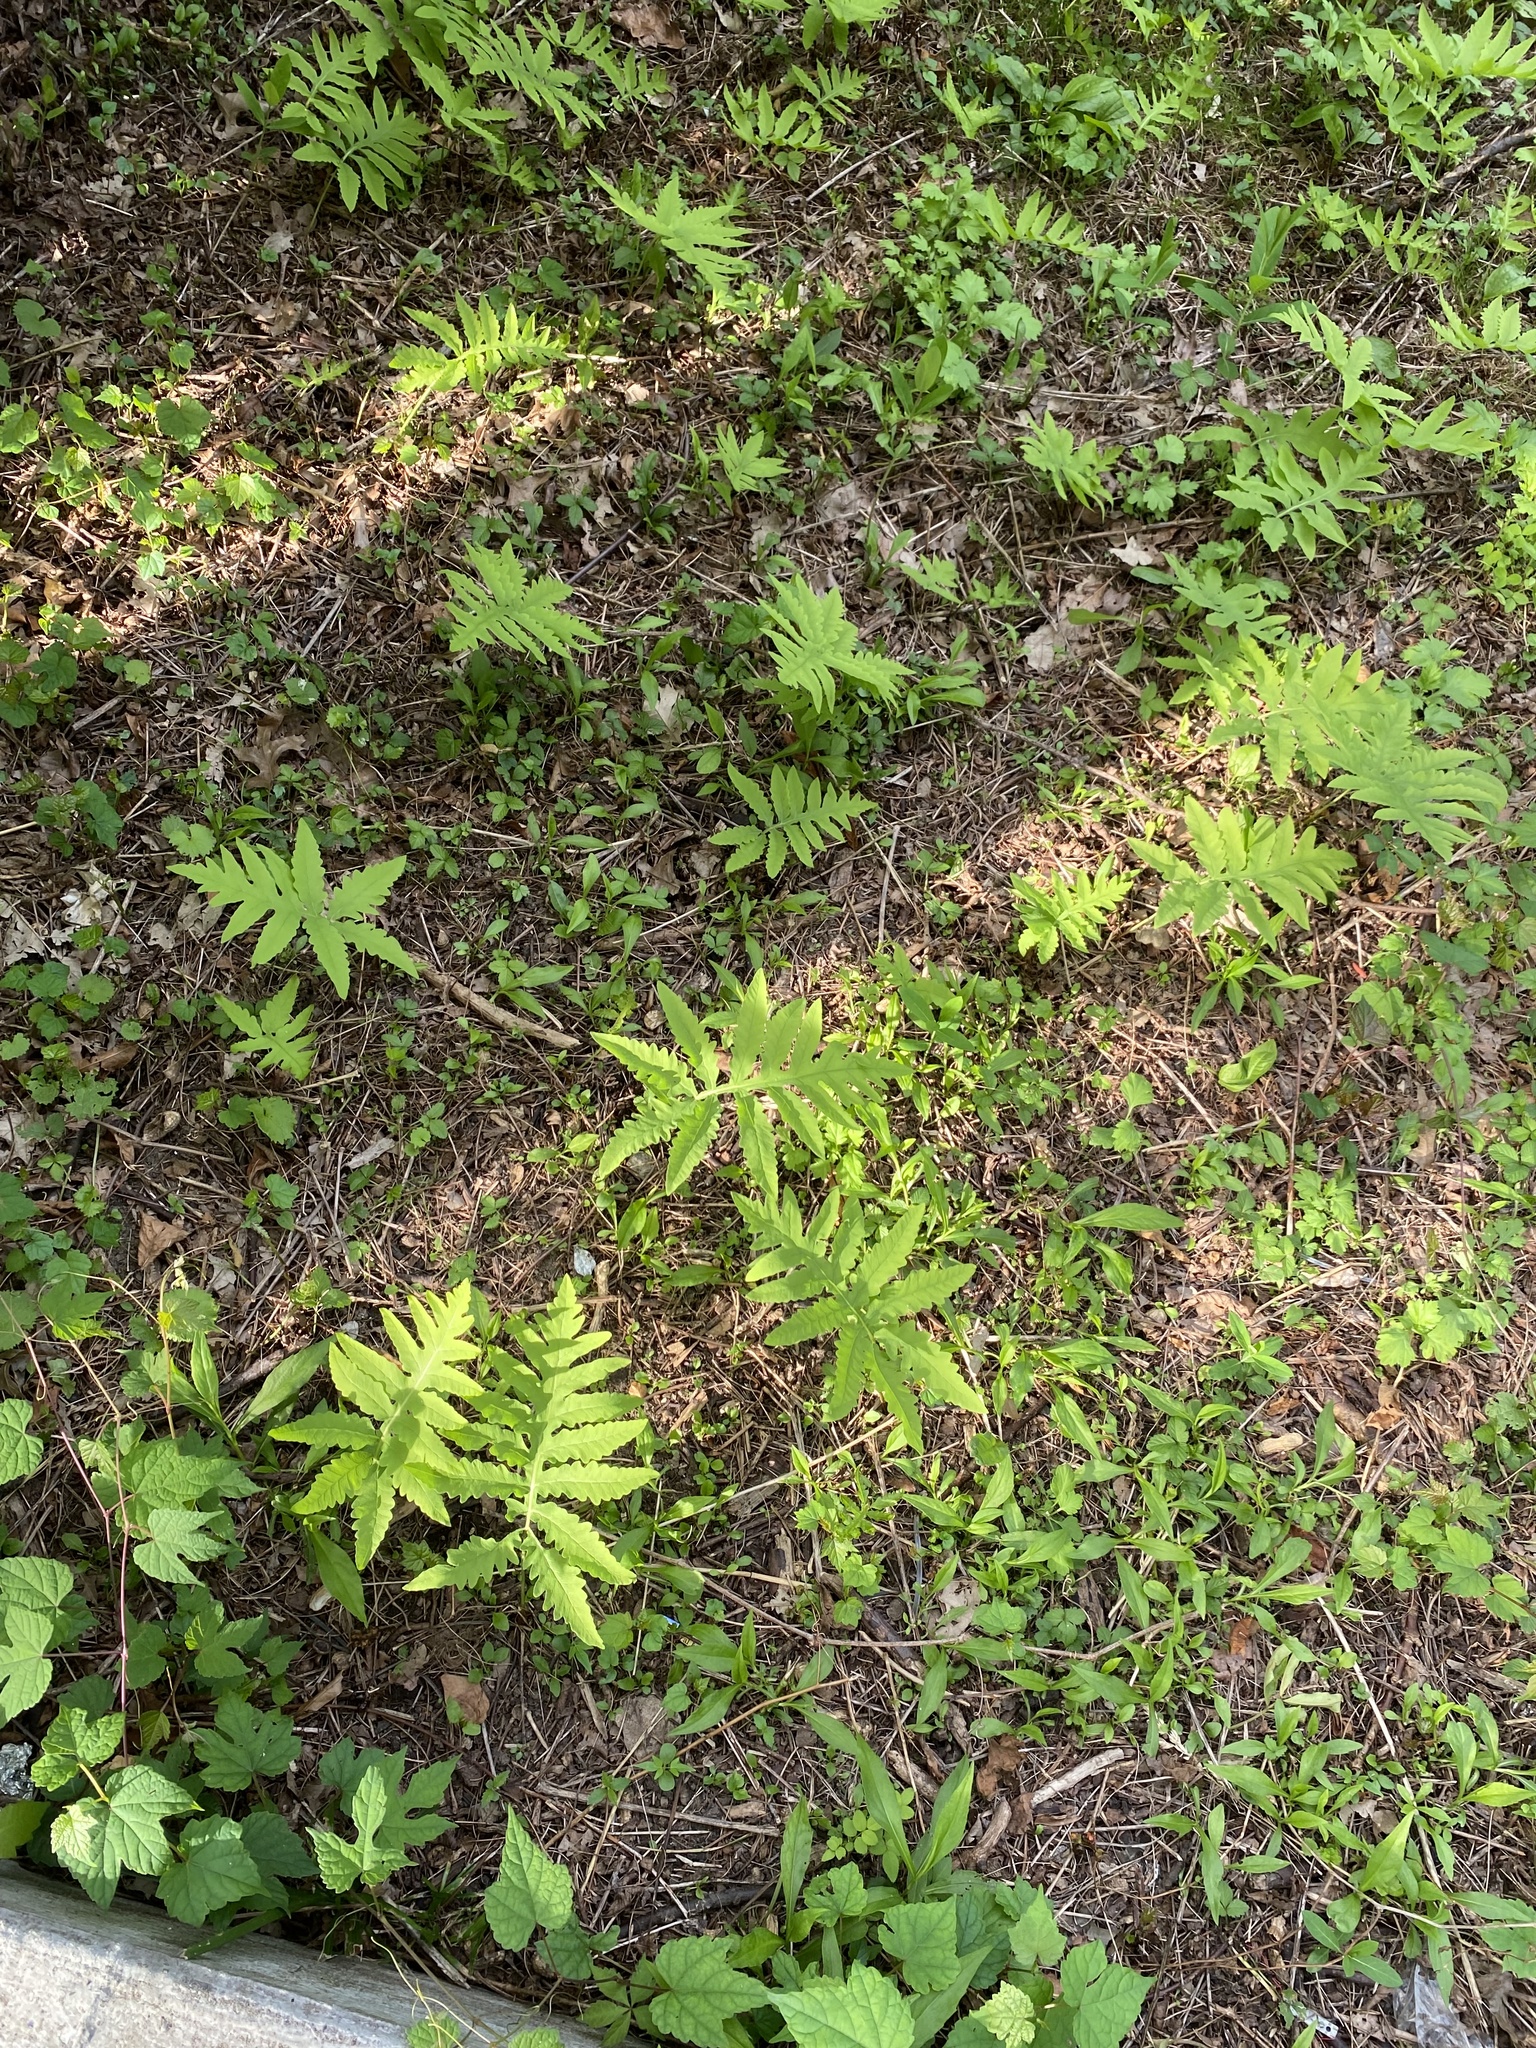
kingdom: Plantae
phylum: Tracheophyta
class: Polypodiopsida
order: Polypodiales
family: Onocleaceae
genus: Onoclea
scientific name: Onoclea sensibilis
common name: Sensitive fern
